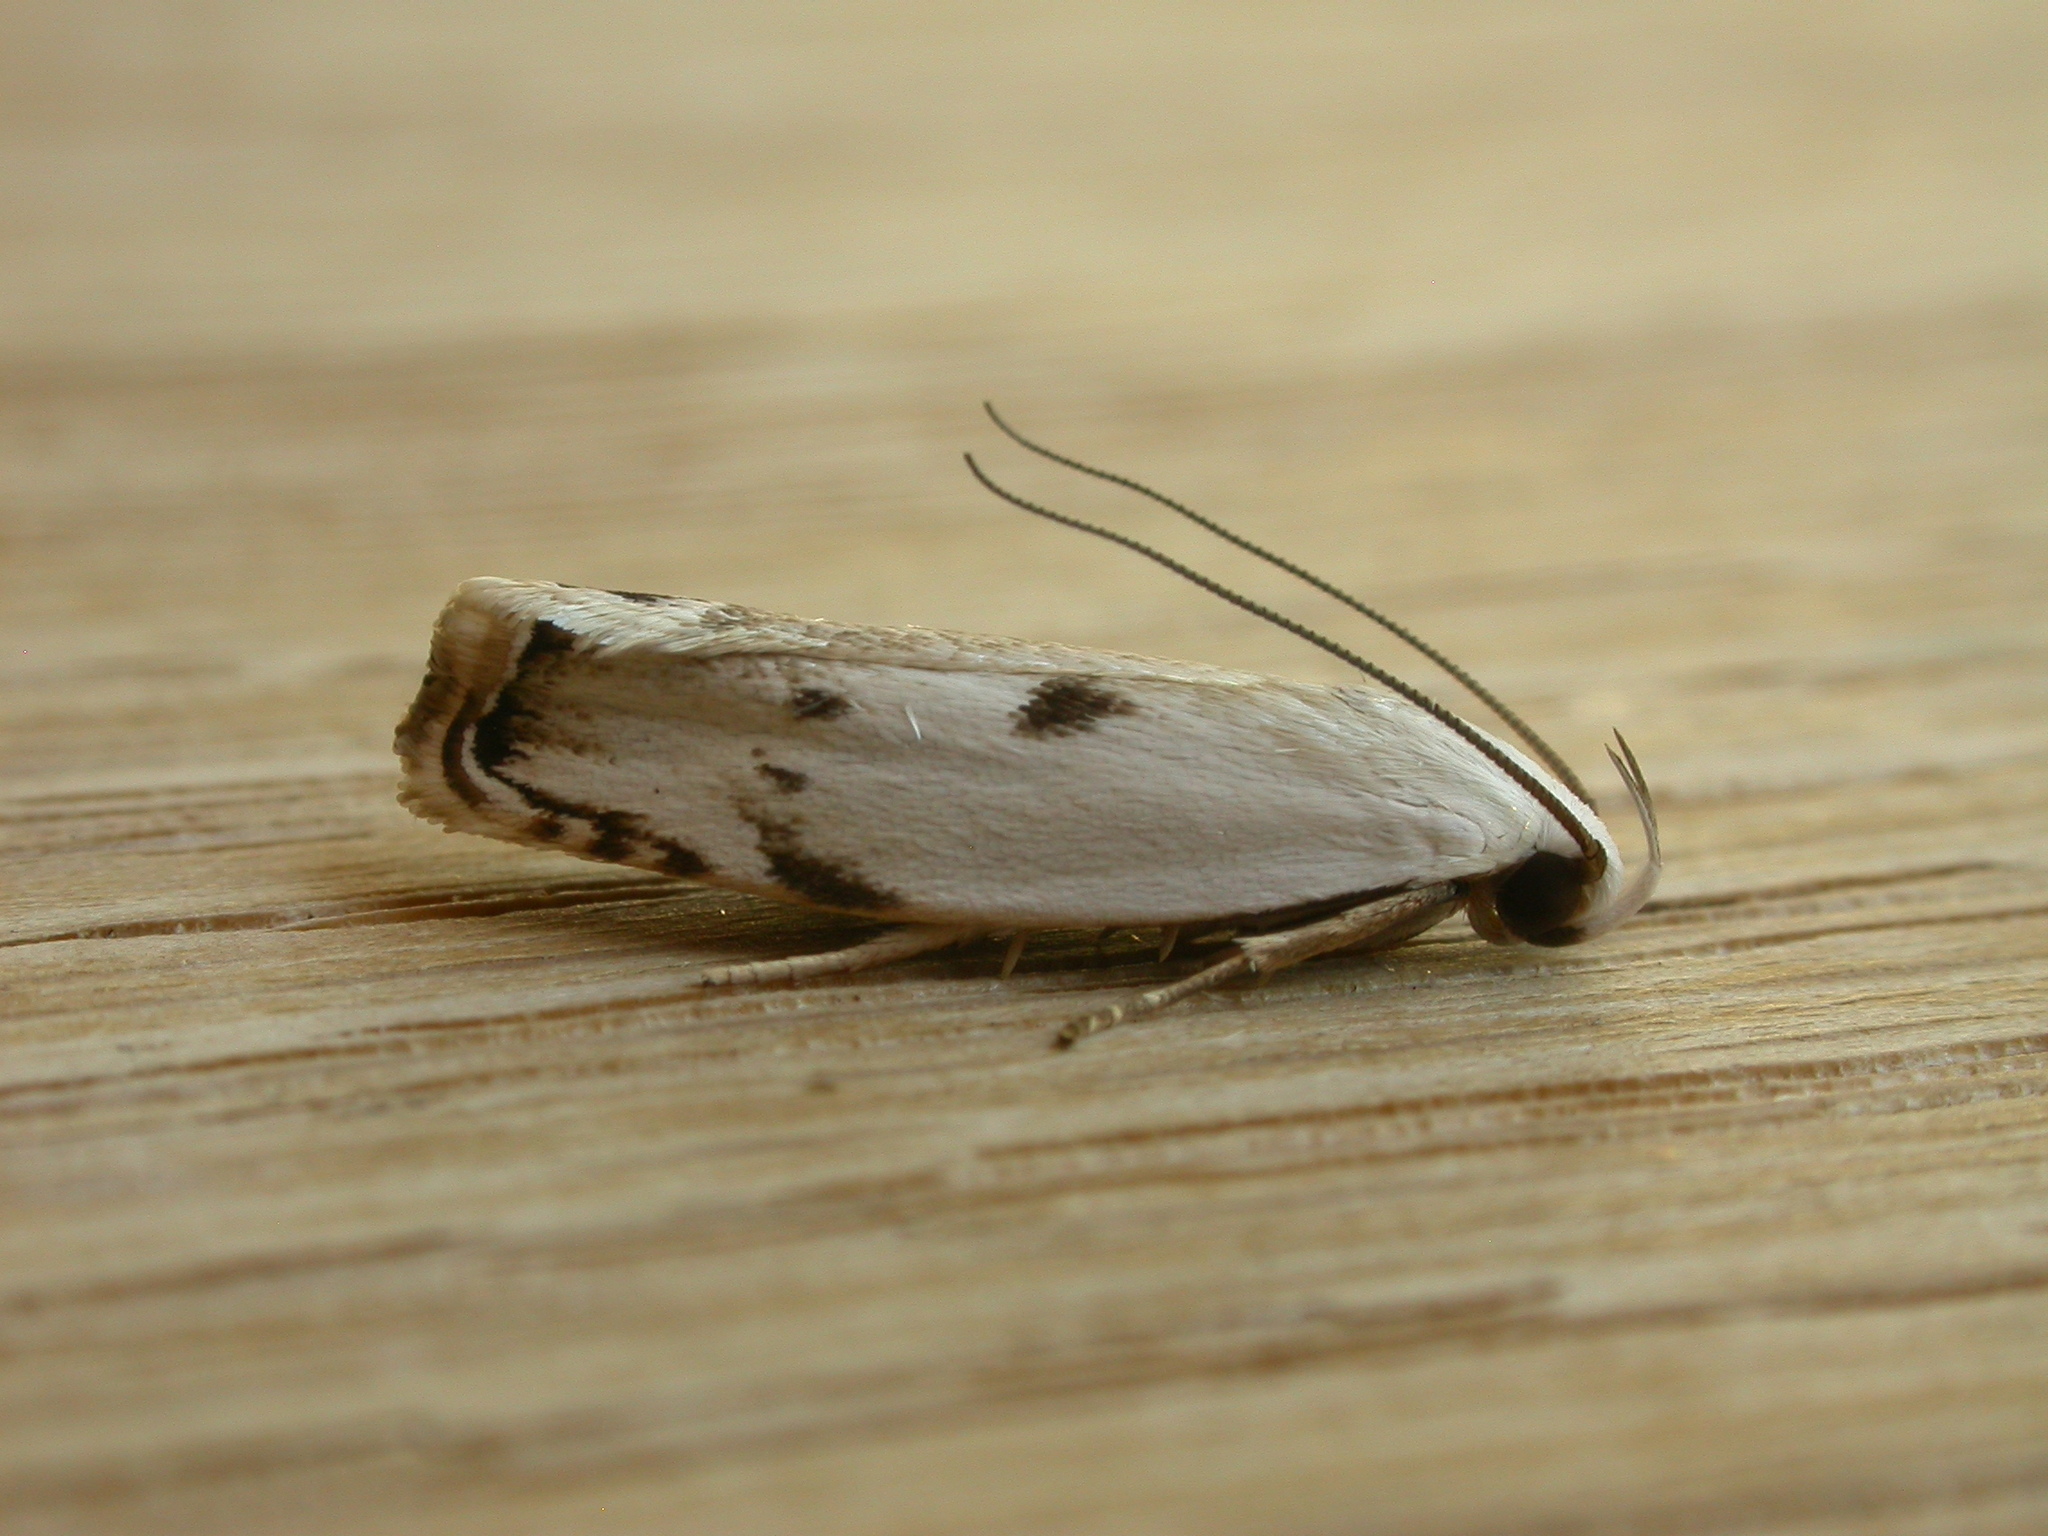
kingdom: Animalia
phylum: Arthropoda
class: Insecta
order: Lepidoptera
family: Xyloryctidae
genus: Plectophila
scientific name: Plectophila discalis
